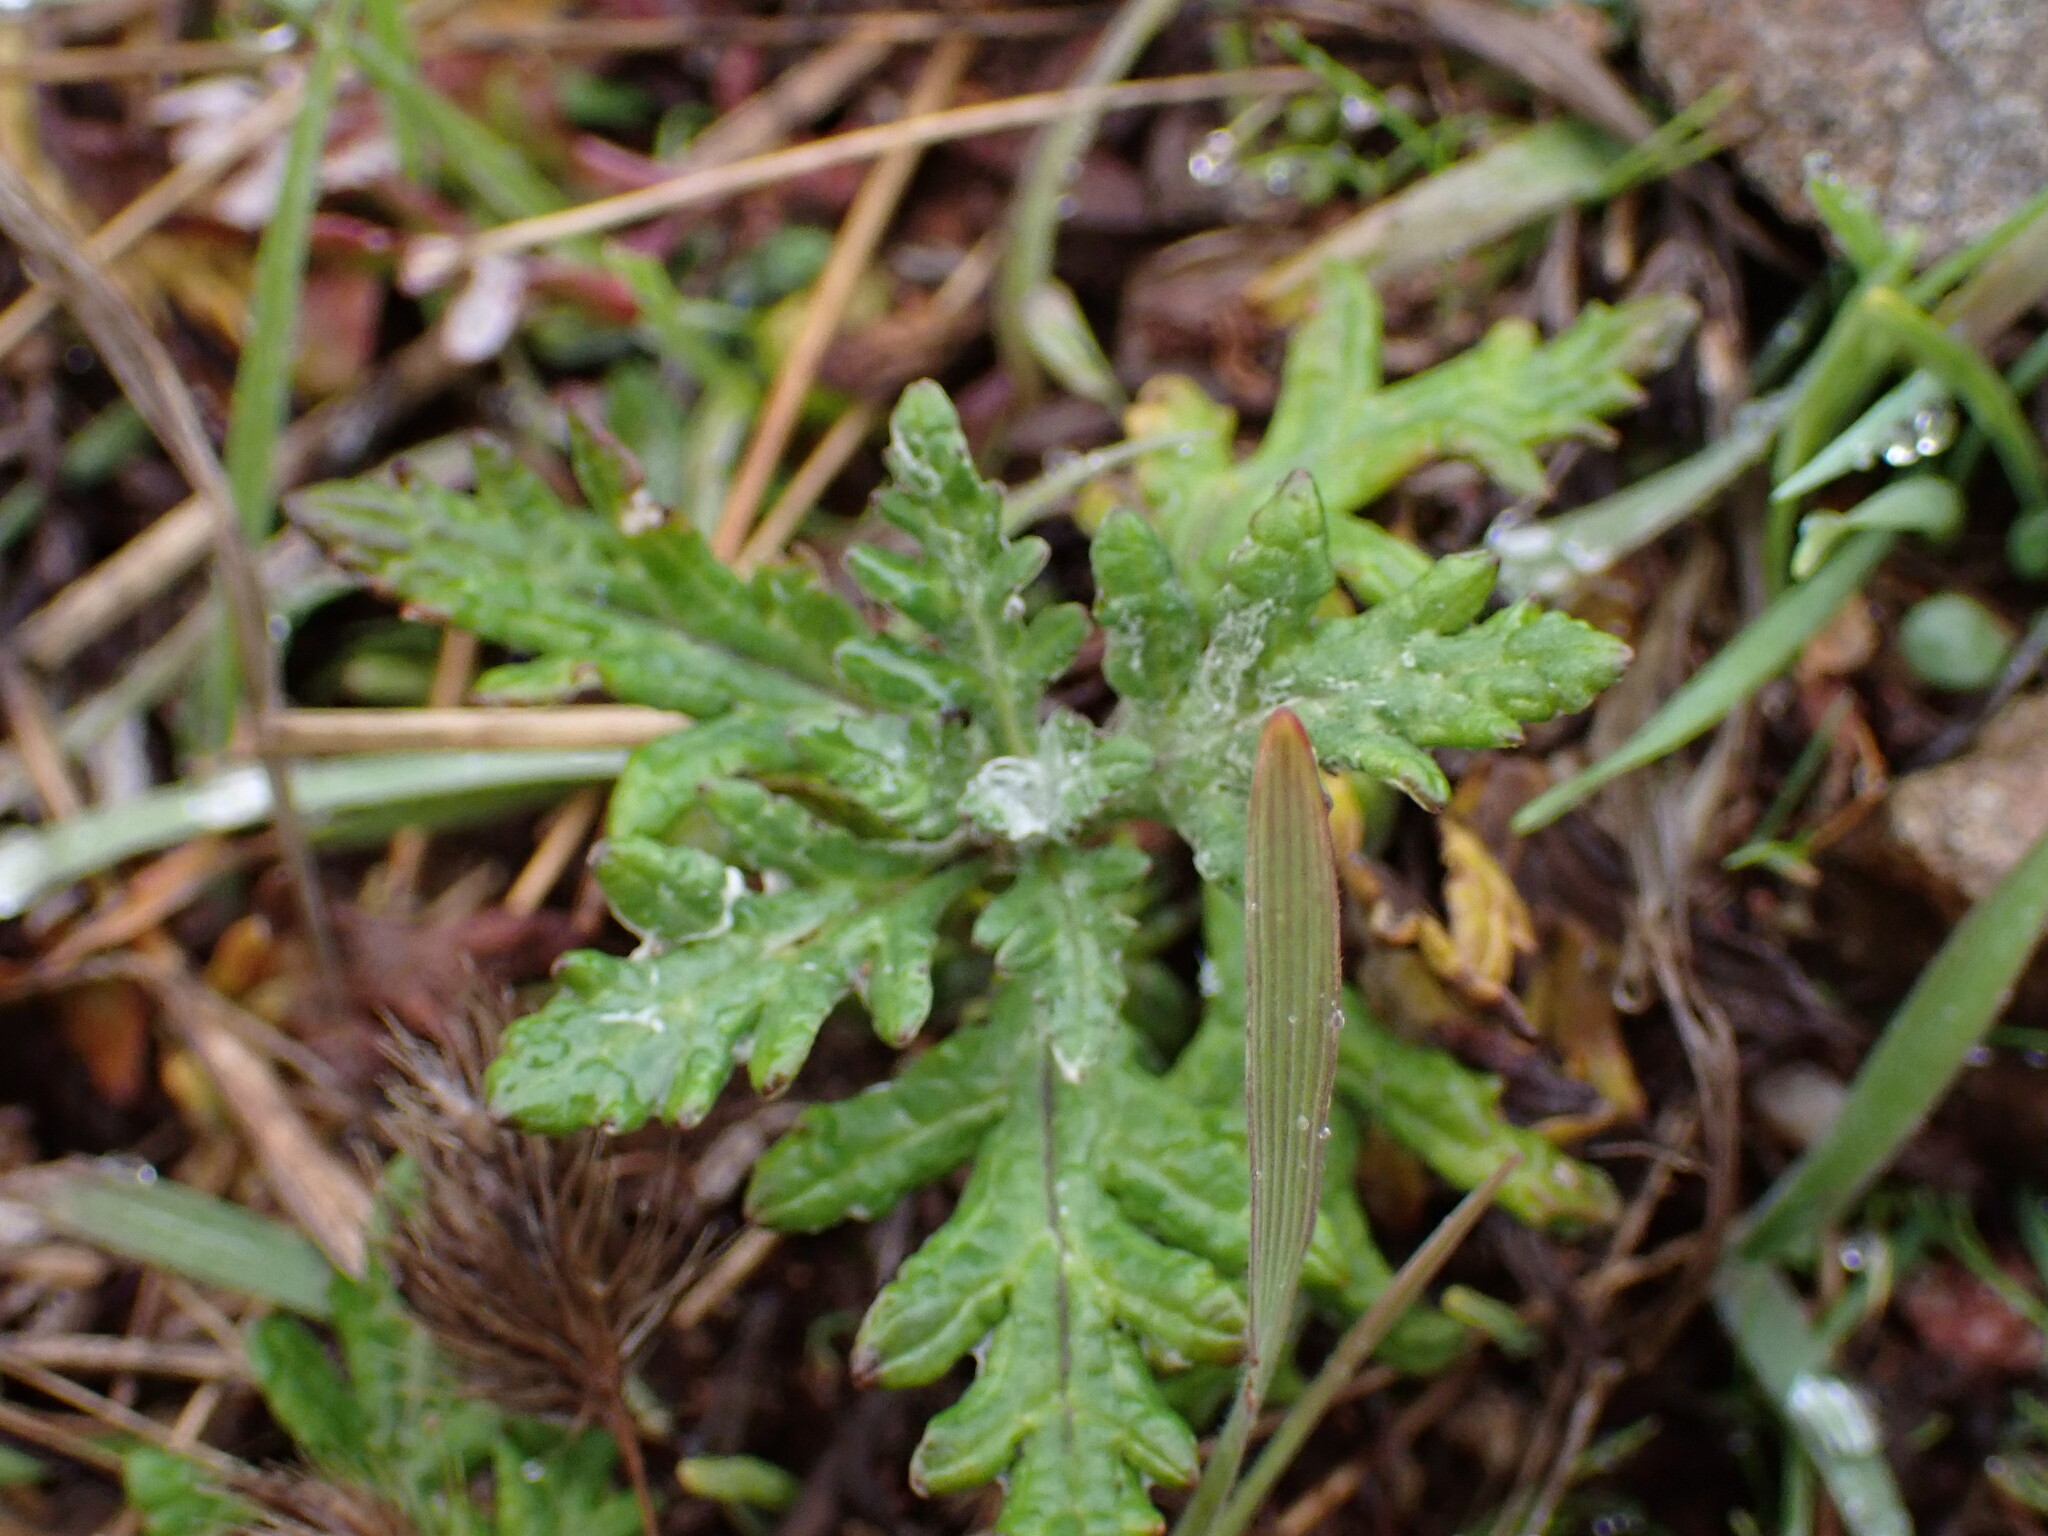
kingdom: Plantae
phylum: Tracheophyta
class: Magnoliopsida
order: Asterales
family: Asteraceae
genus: Eriophyllum
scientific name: Eriophyllum lanatum
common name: Common woolly-sunflower
